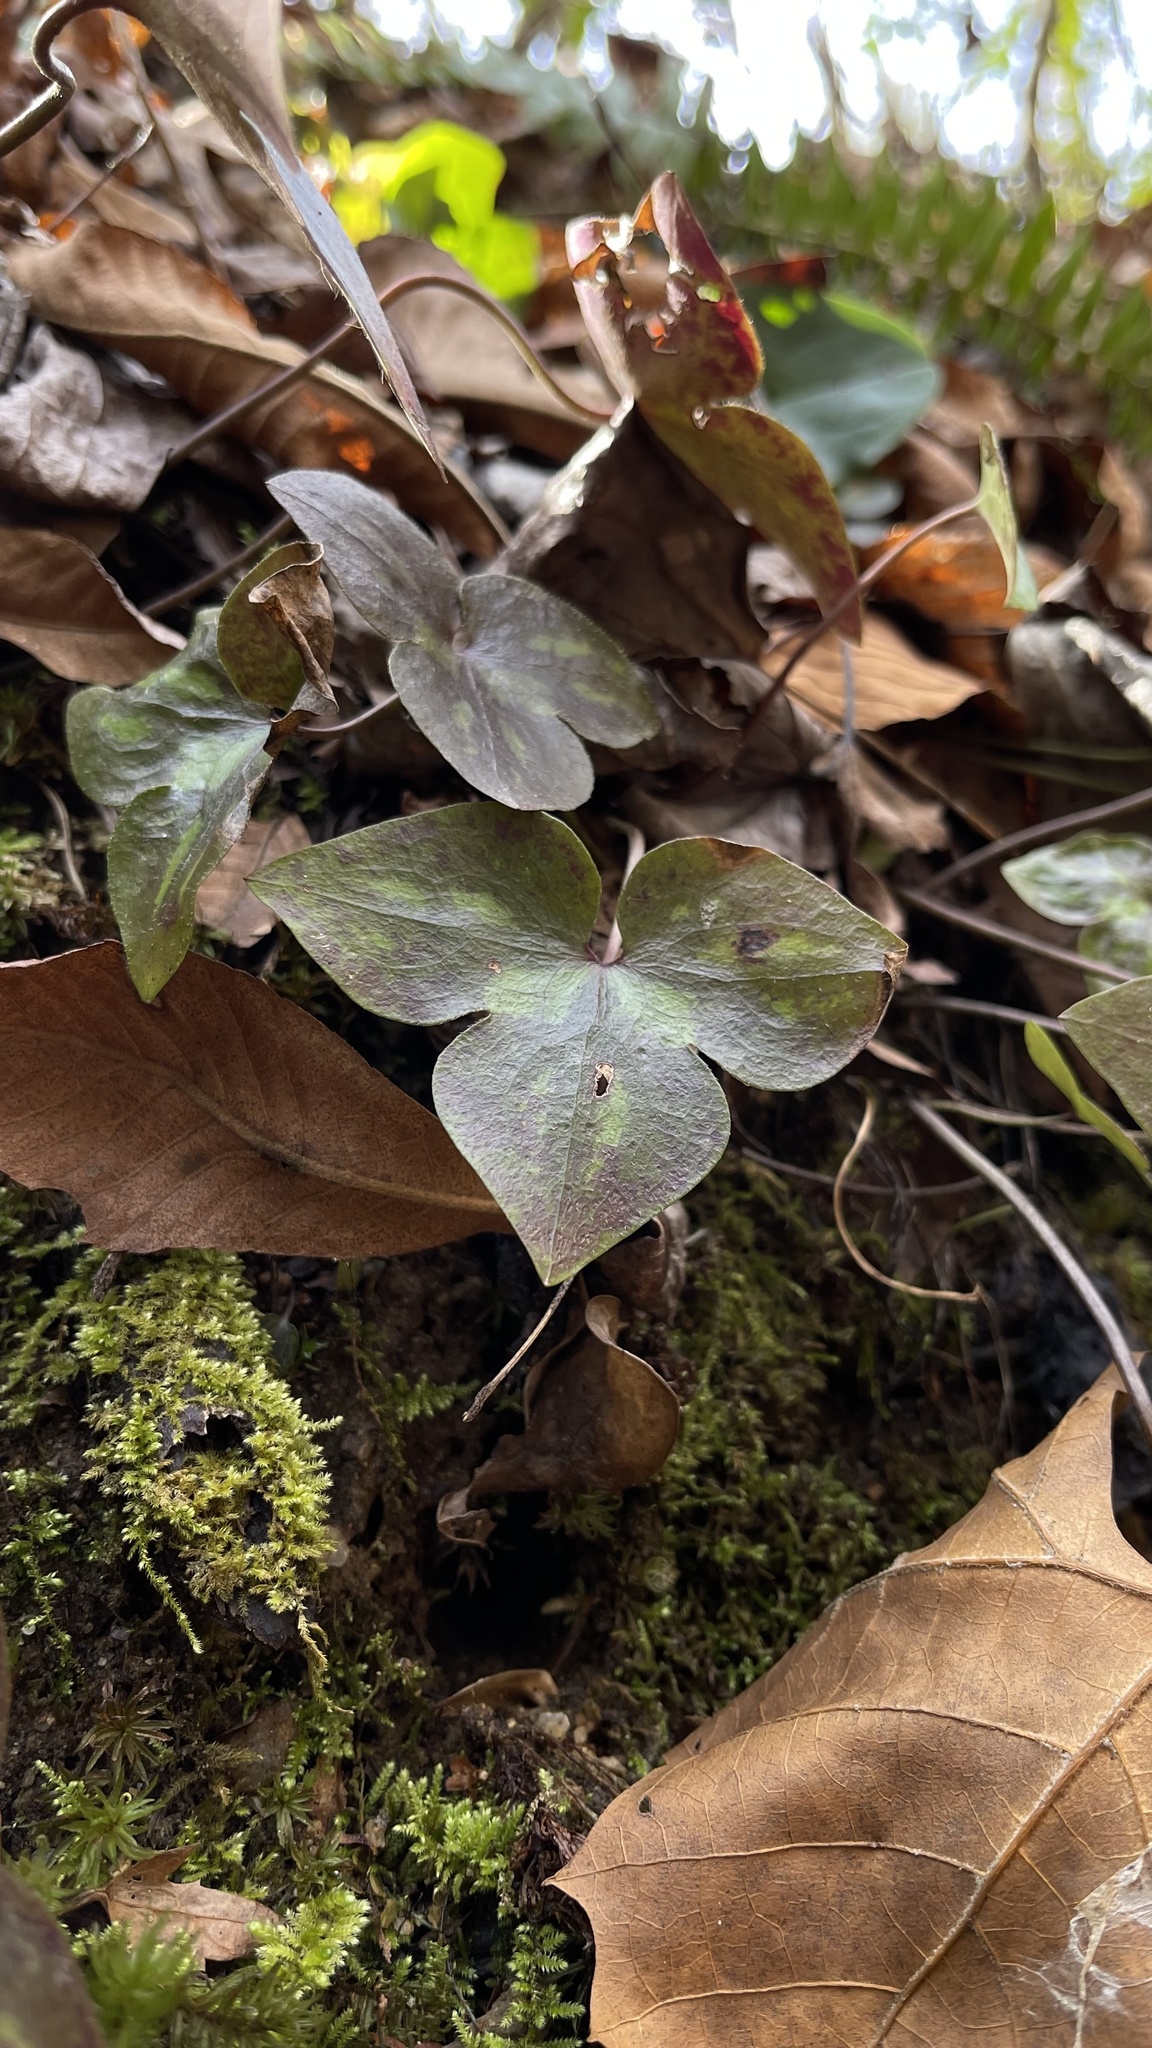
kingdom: Plantae
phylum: Tracheophyta
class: Magnoliopsida
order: Ranunculales
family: Ranunculaceae
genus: Hepatica
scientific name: Hepatica acutiloba
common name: Sharp-lobed hepatica
